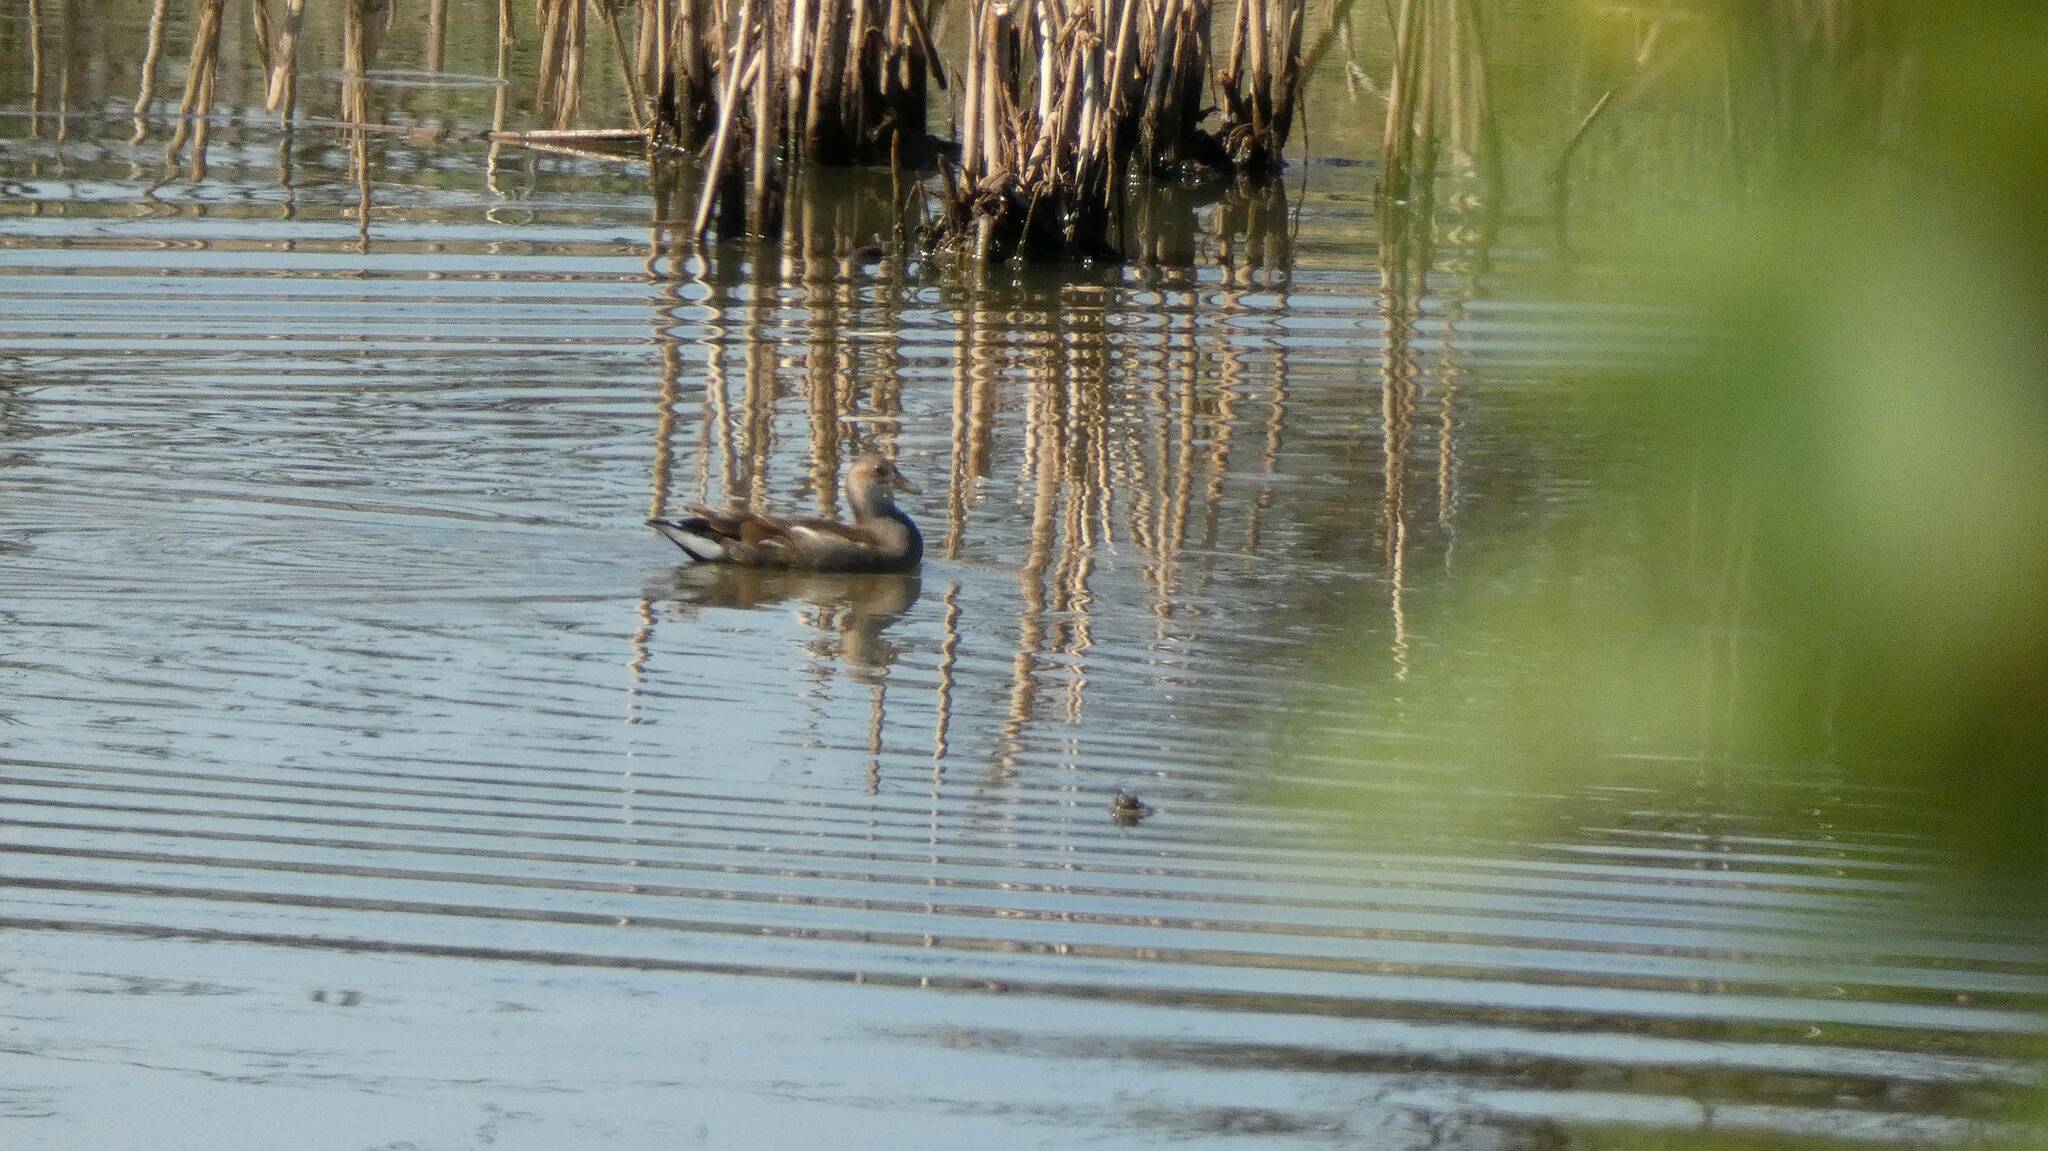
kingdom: Animalia
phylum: Chordata
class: Aves
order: Gruiformes
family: Rallidae
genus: Gallinula
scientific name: Gallinula chloropus
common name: Common moorhen
